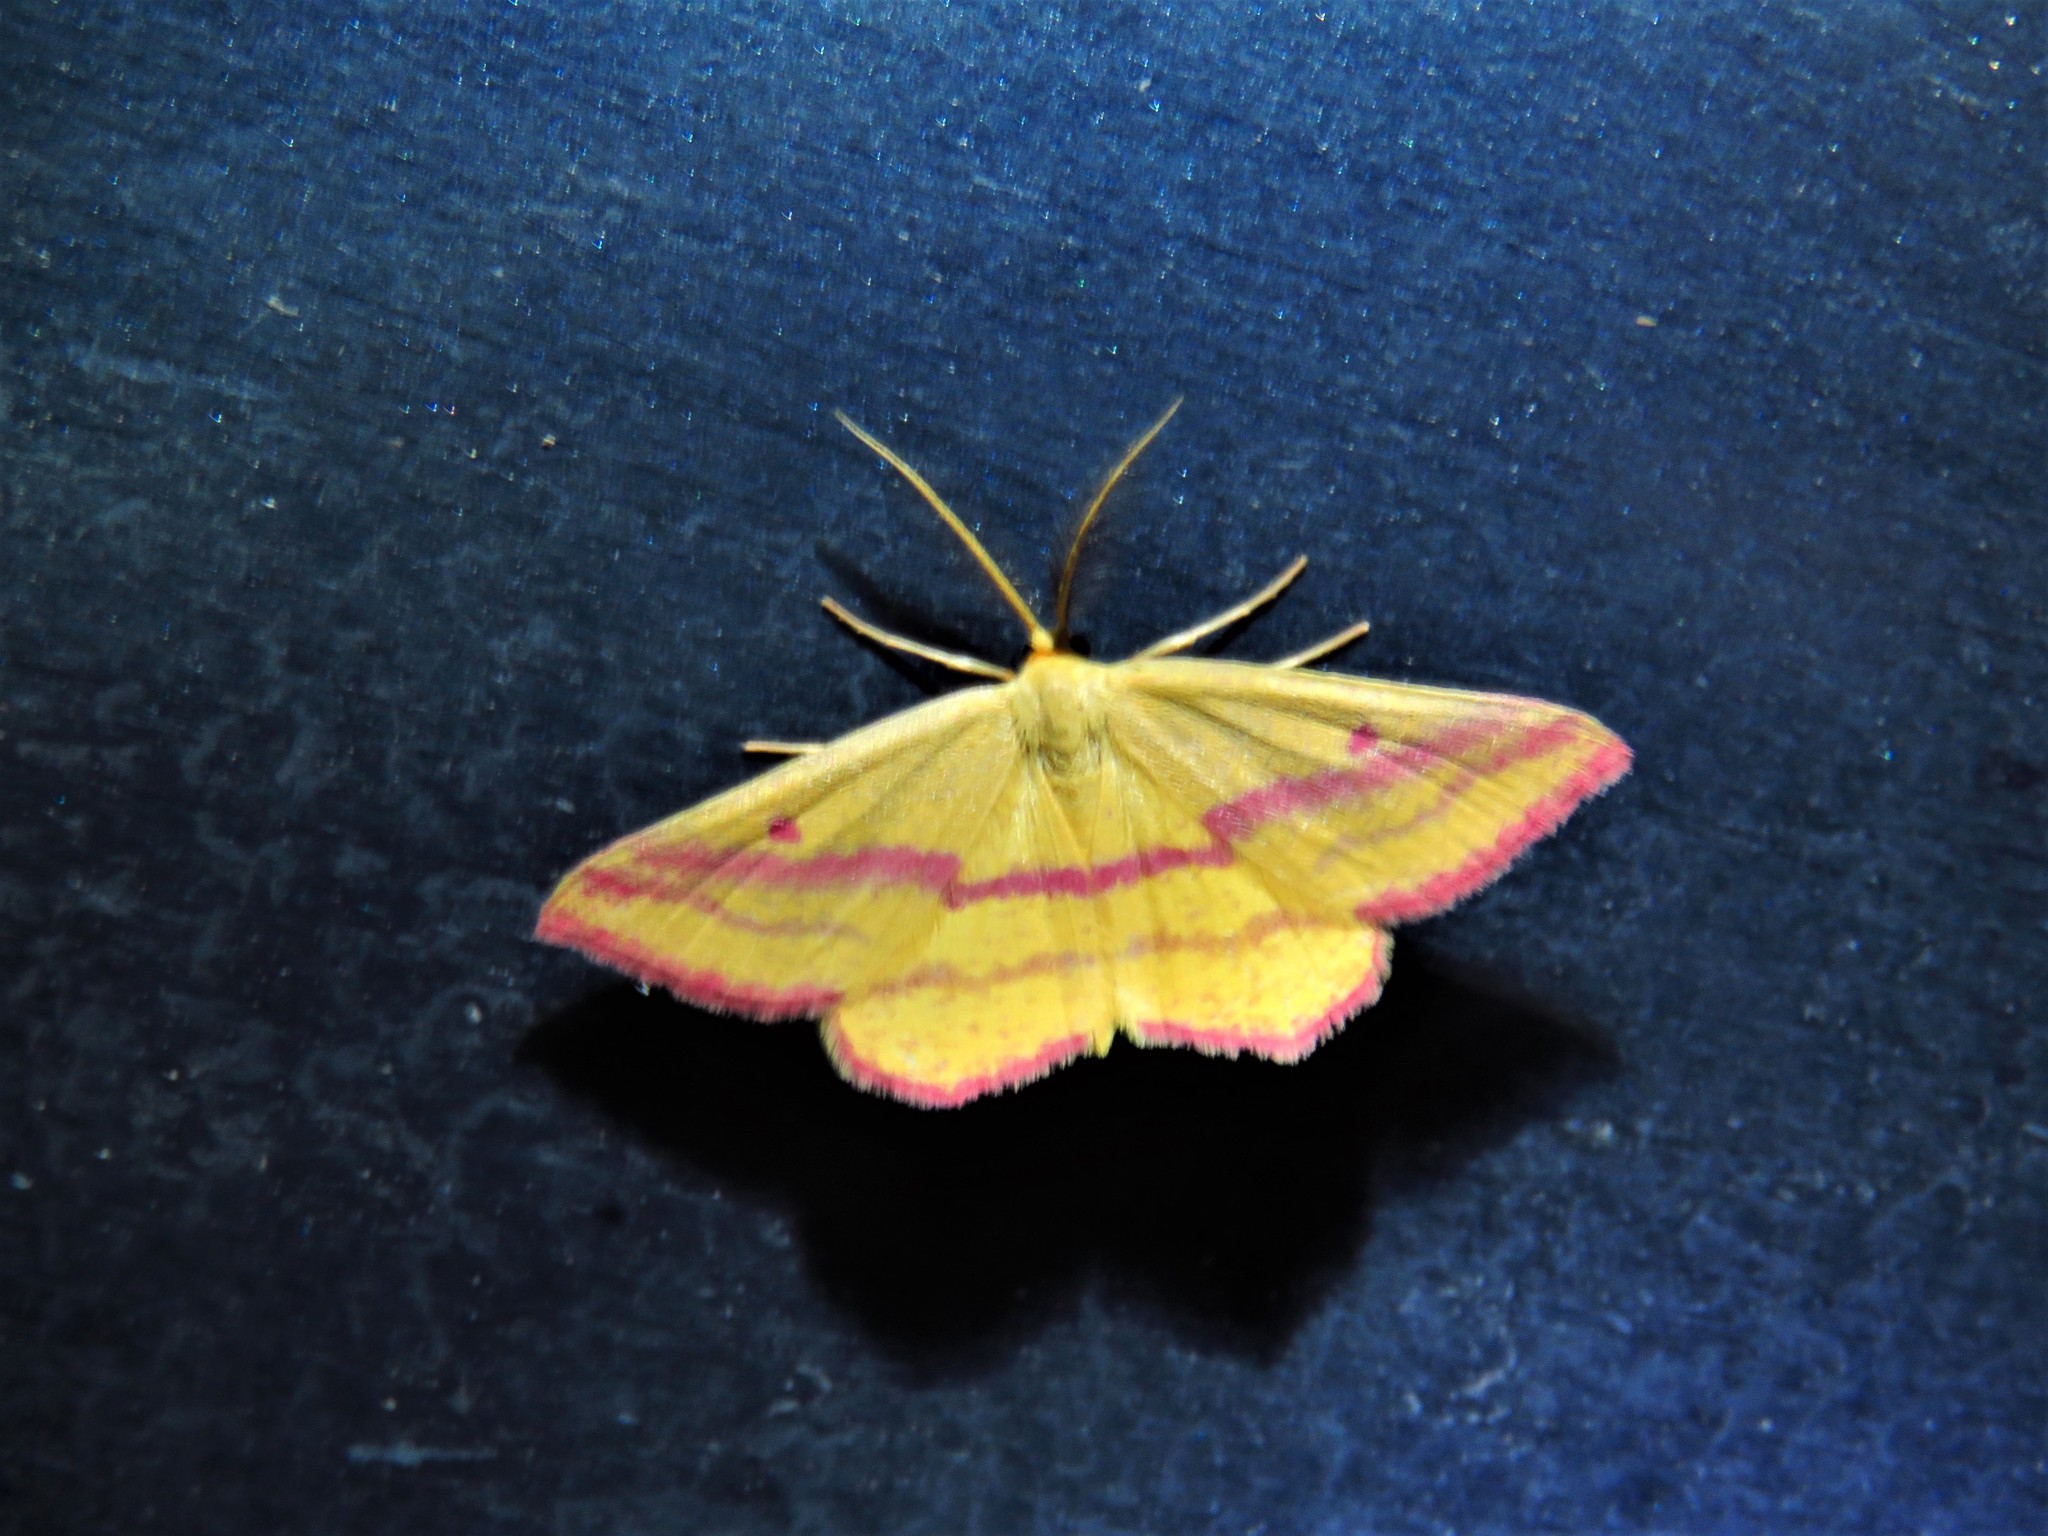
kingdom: Animalia
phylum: Arthropoda
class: Insecta
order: Lepidoptera
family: Geometridae
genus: Haematopis
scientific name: Haematopis grataria
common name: Chickweed geometer
